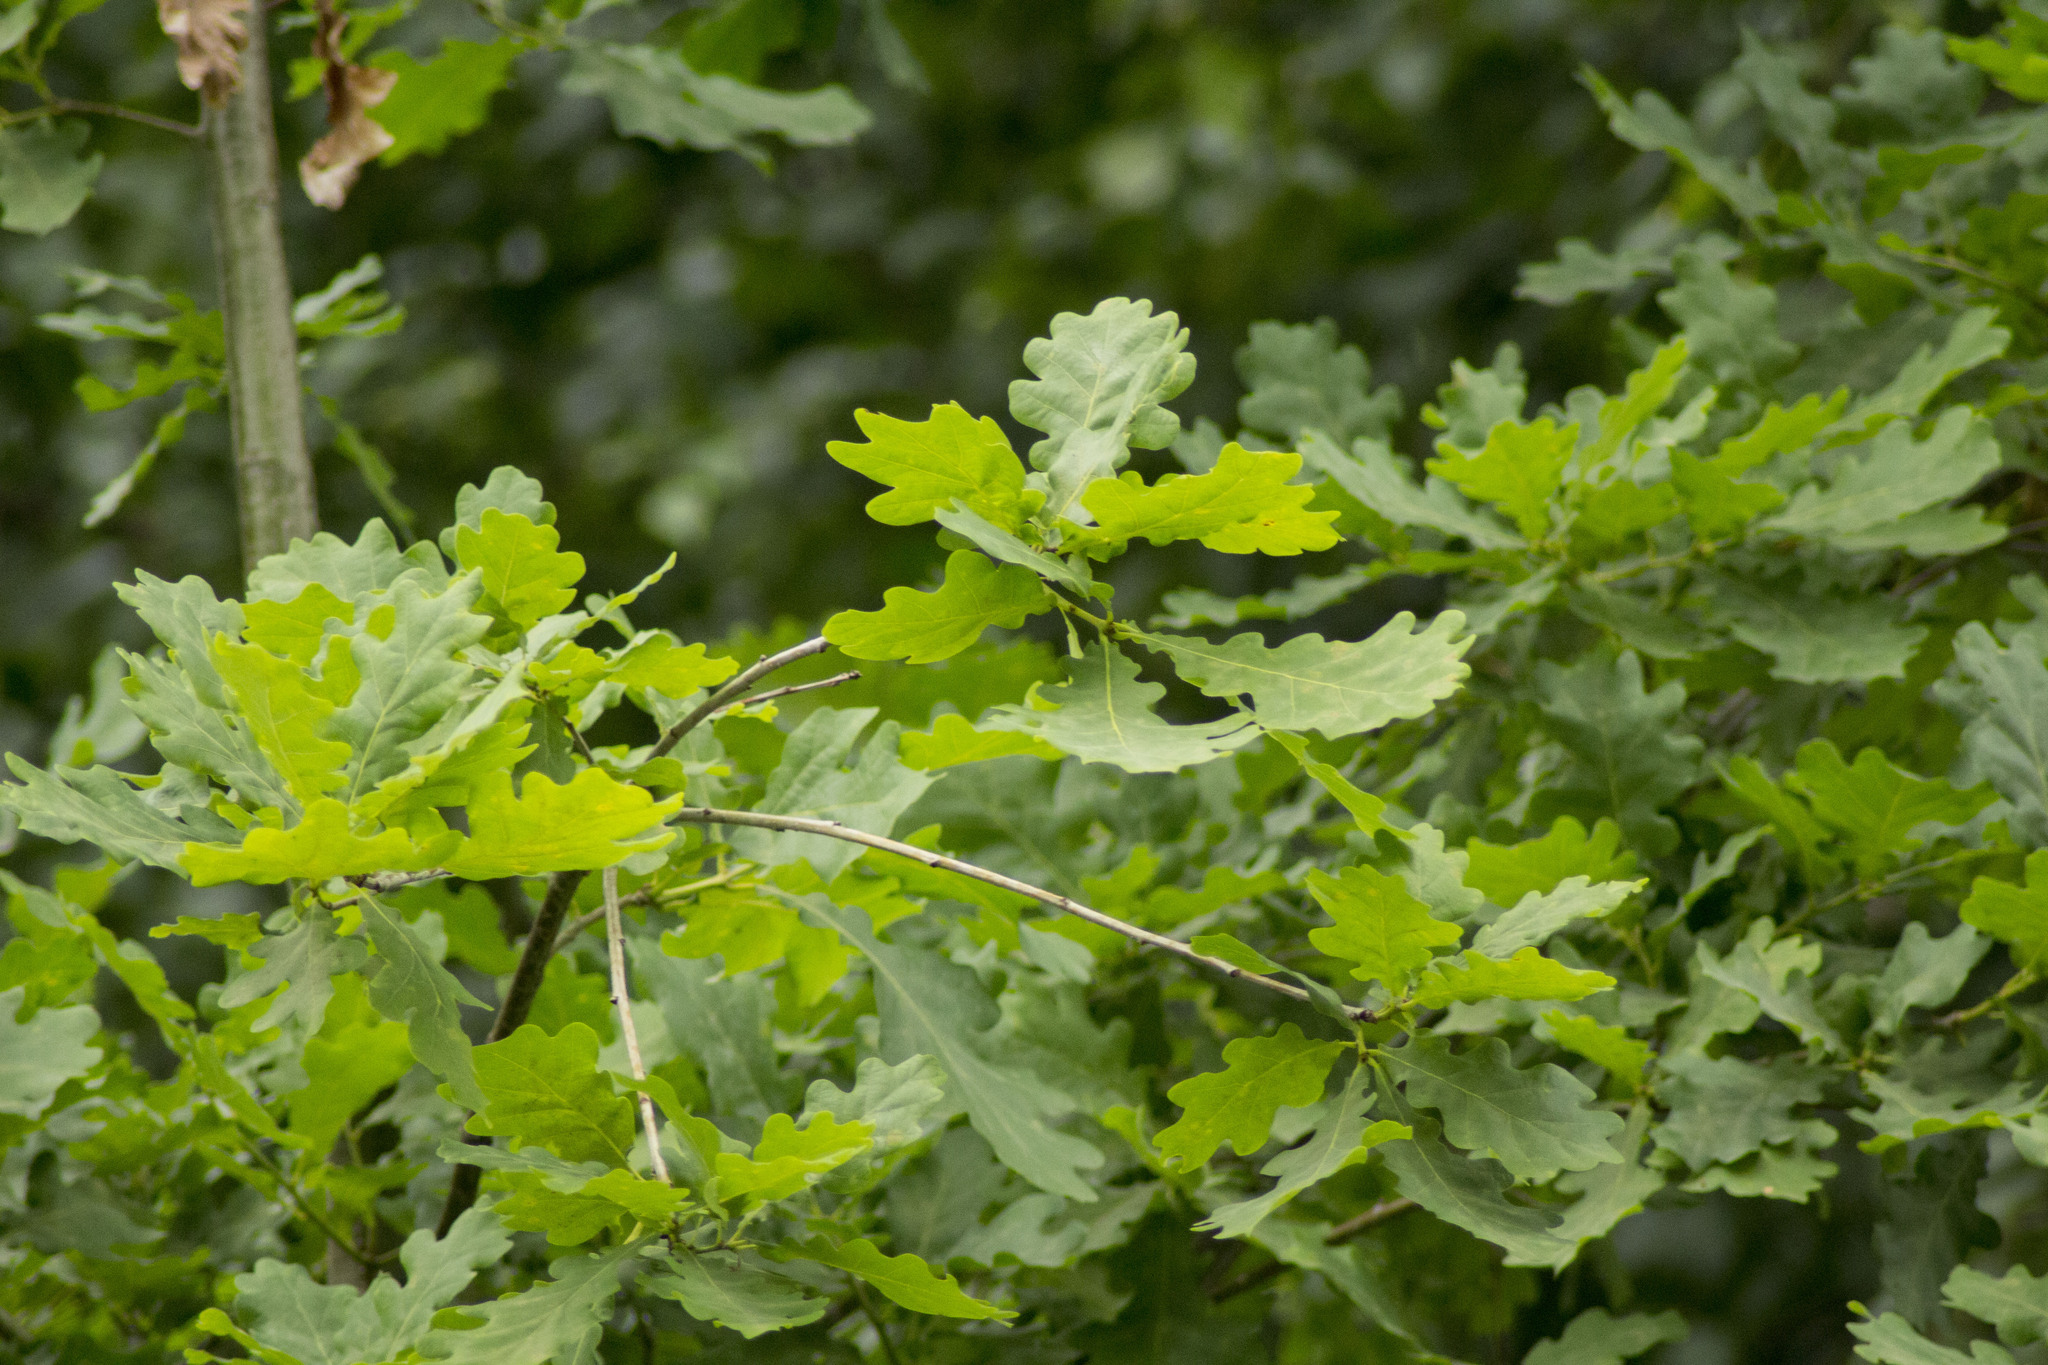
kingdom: Plantae
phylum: Tracheophyta
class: Magnoliopsida
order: Fagales
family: Fagaceae
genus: Quercus
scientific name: Quercus robur
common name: Pedunculate oak
